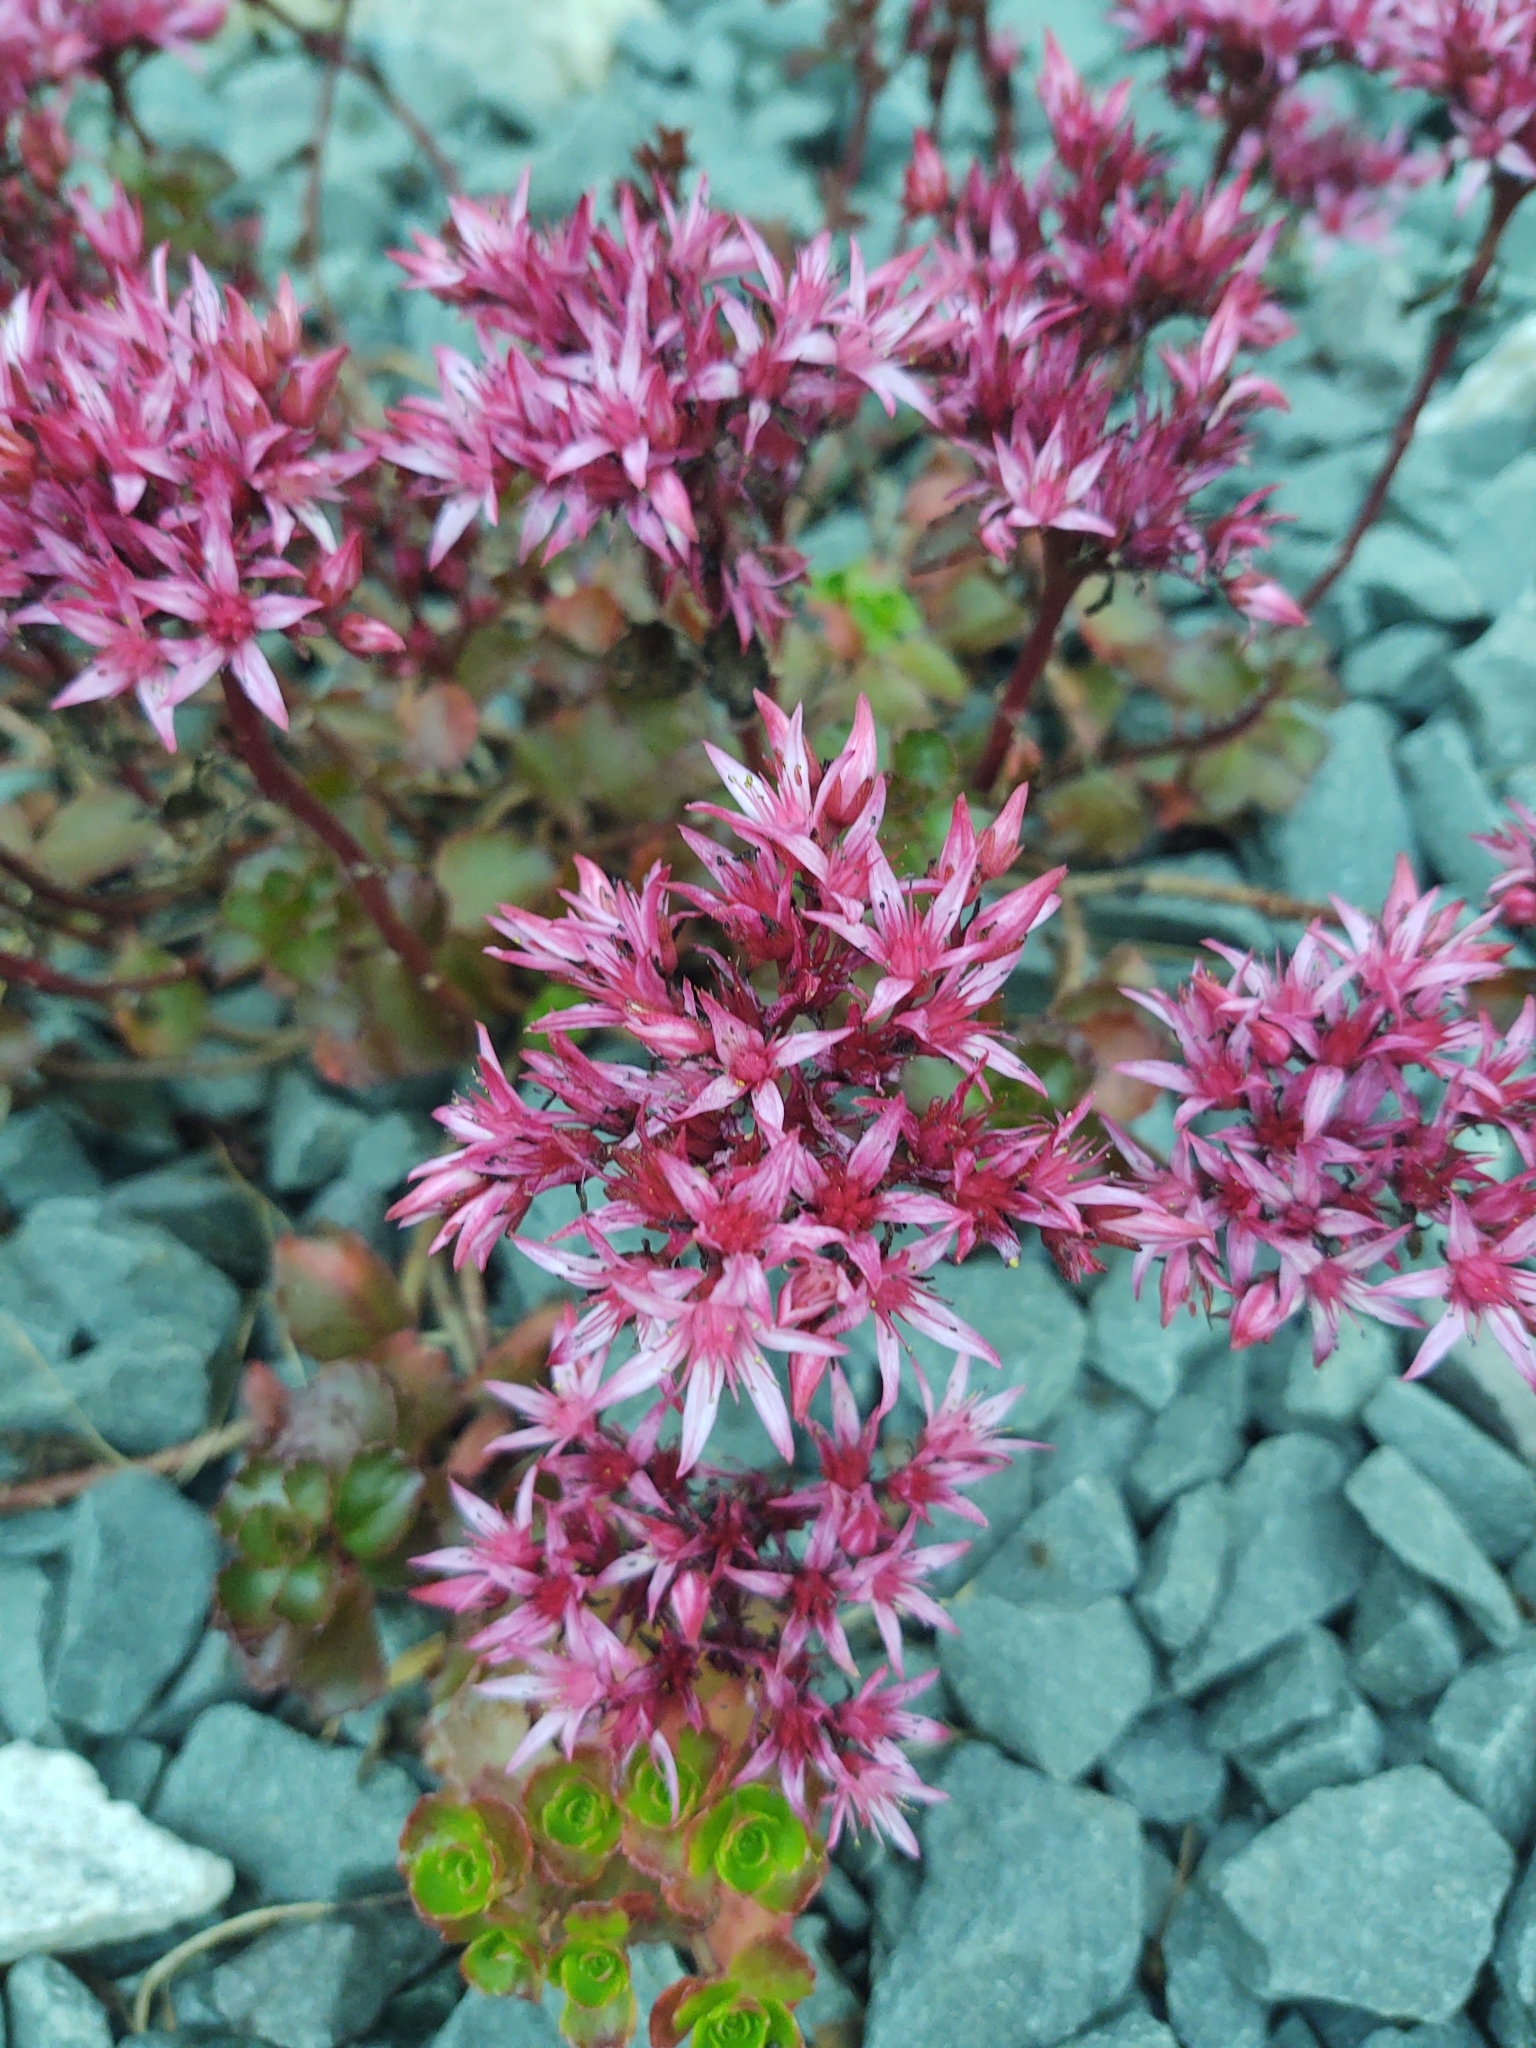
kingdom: Plantae
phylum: Tracheophyta
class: Magnoliopsida
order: Saxifragales
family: Crassulaceae
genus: Phedimus
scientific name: Phedimus spurius
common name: Caucasian stonecrop
